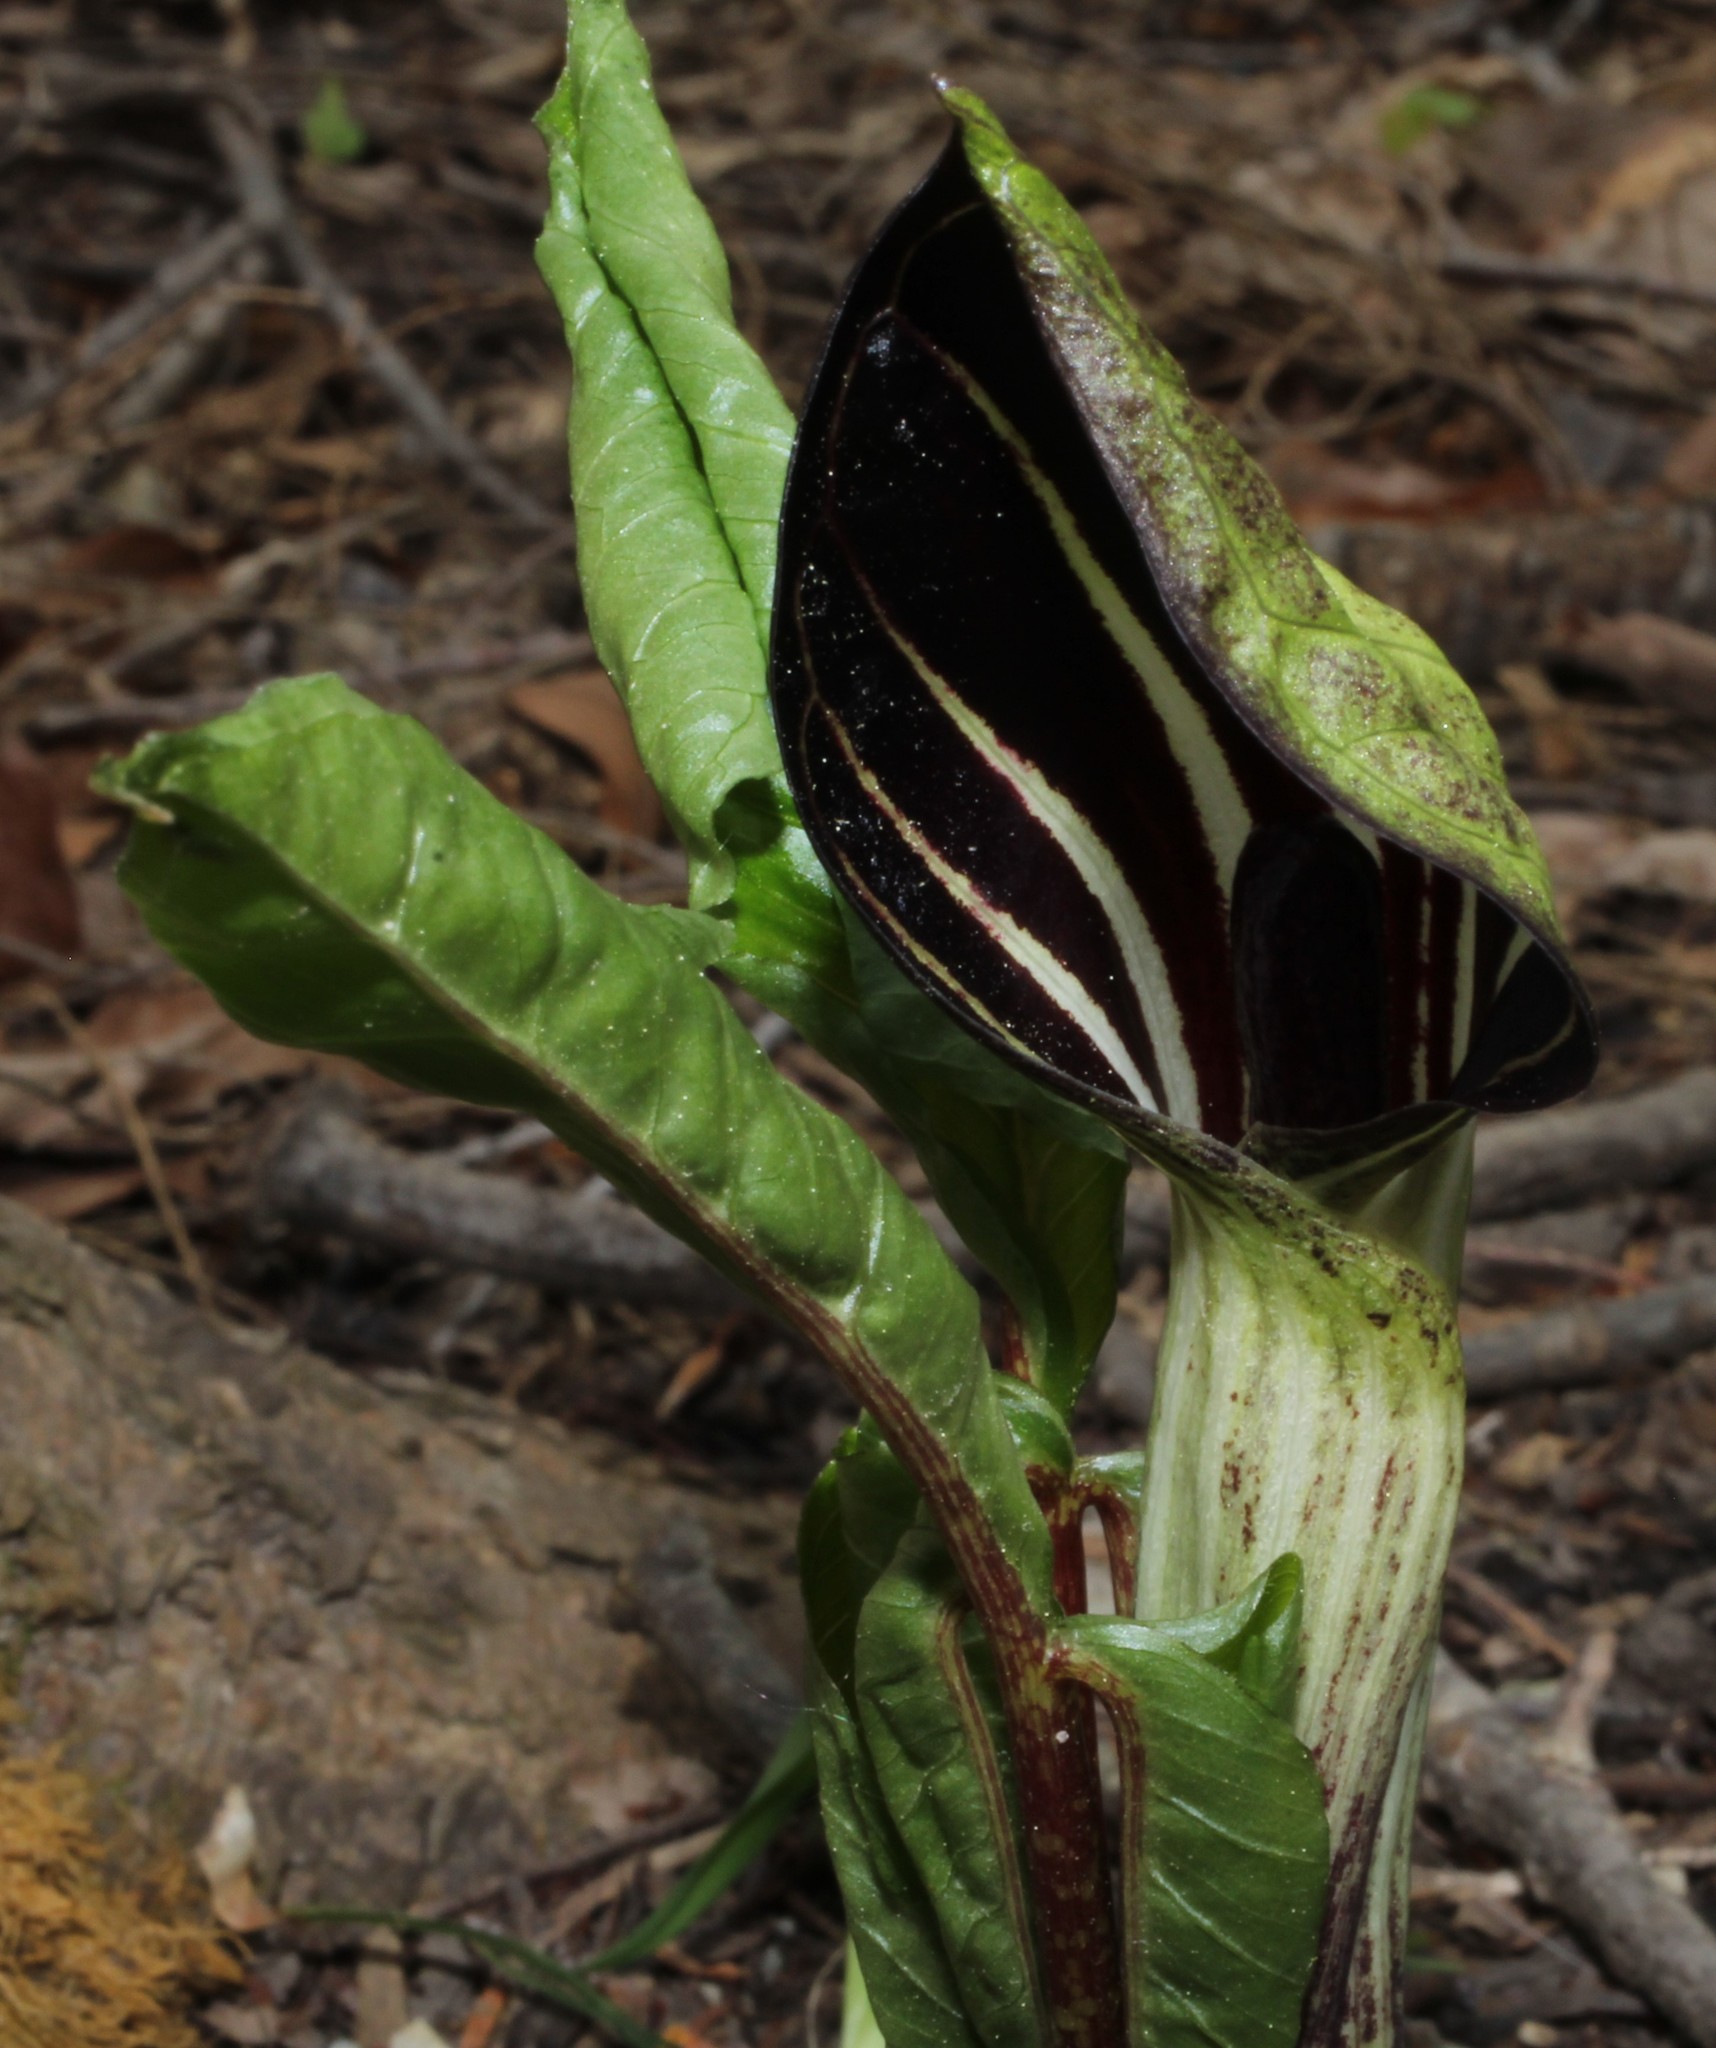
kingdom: Plantae
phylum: Tracheophyta
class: Liliopsida
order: Alismatales
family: Araceae
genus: Arisaema
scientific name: Arisaema triphyllum
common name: Jack-in-the-pulpit
